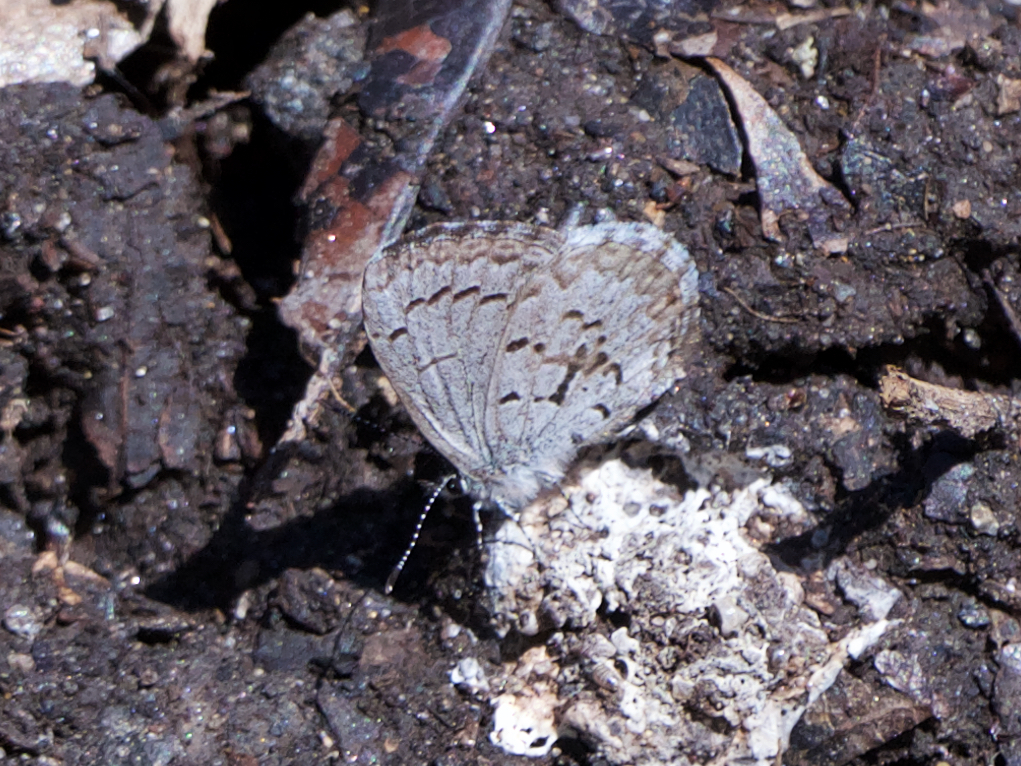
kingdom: Animalia
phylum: Arthropoda
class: Insecta
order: Lepidoptera
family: Lycaenidae
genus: Celastrina
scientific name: Celastrina ladon
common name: Spring azure
